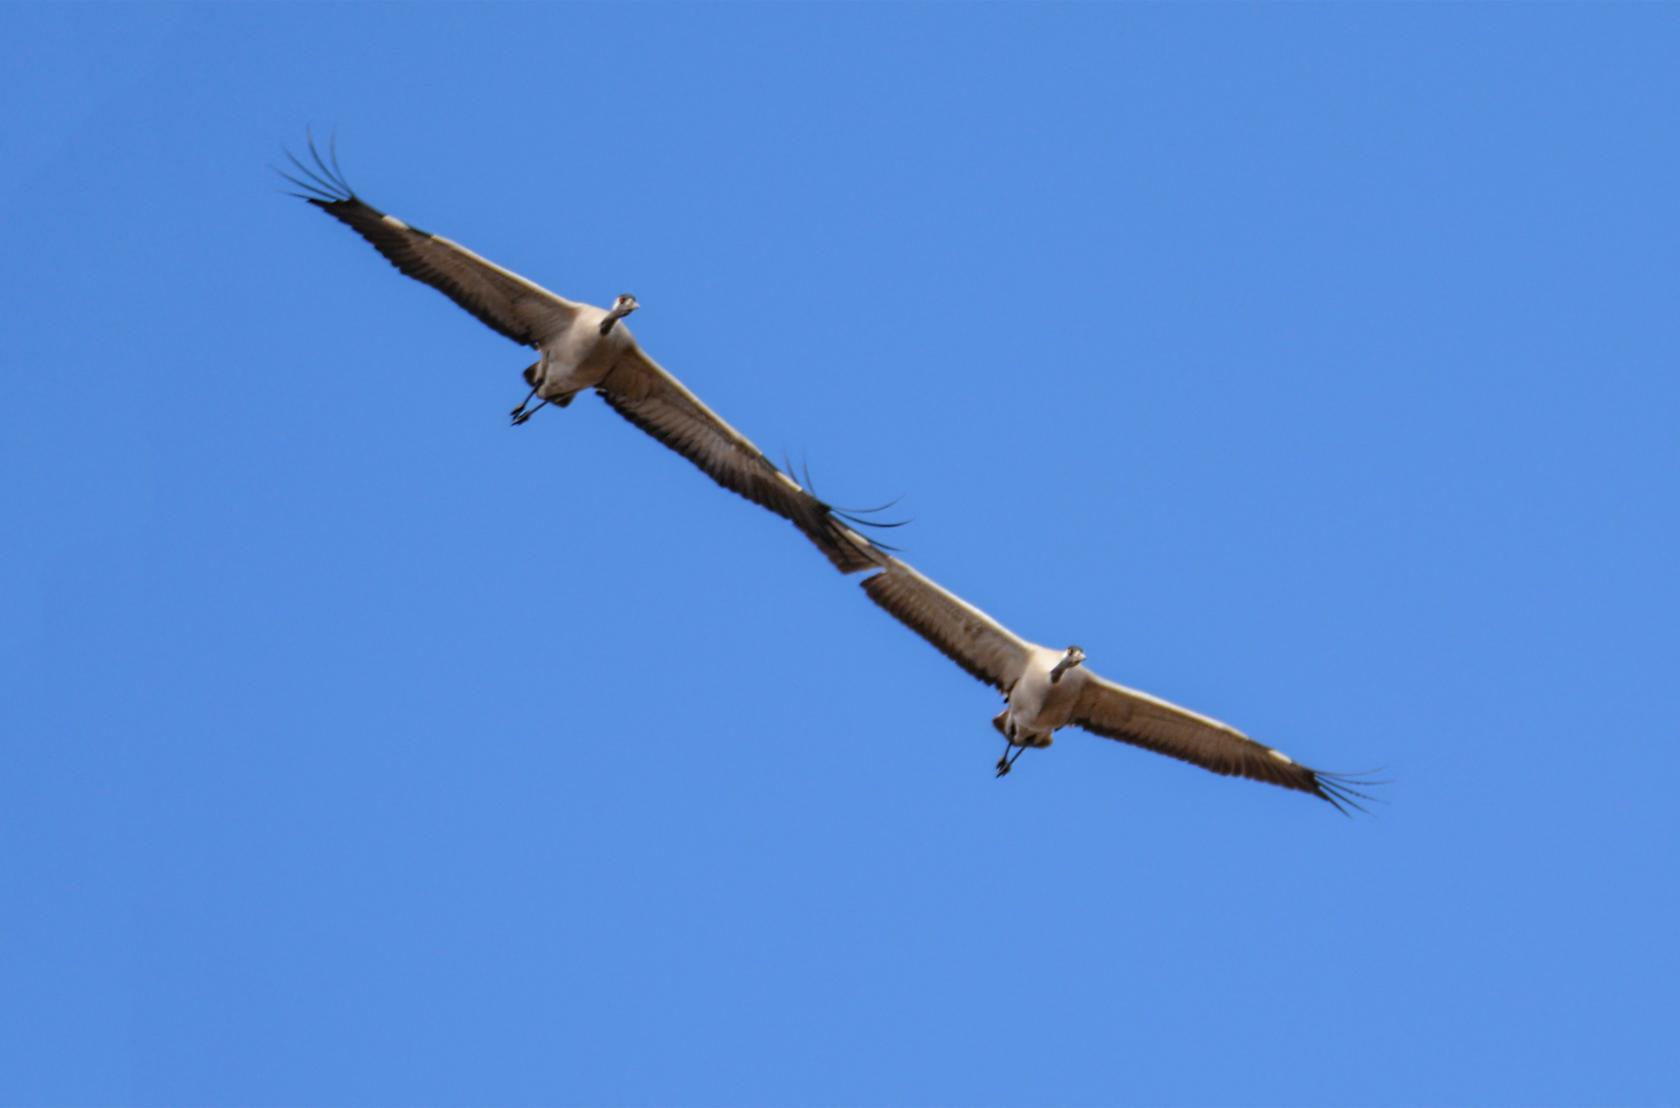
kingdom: Animalia
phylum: Chordata
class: Aves
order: Gruiformes
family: Gruidae
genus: Grus
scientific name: Grus grus
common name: Common crane
